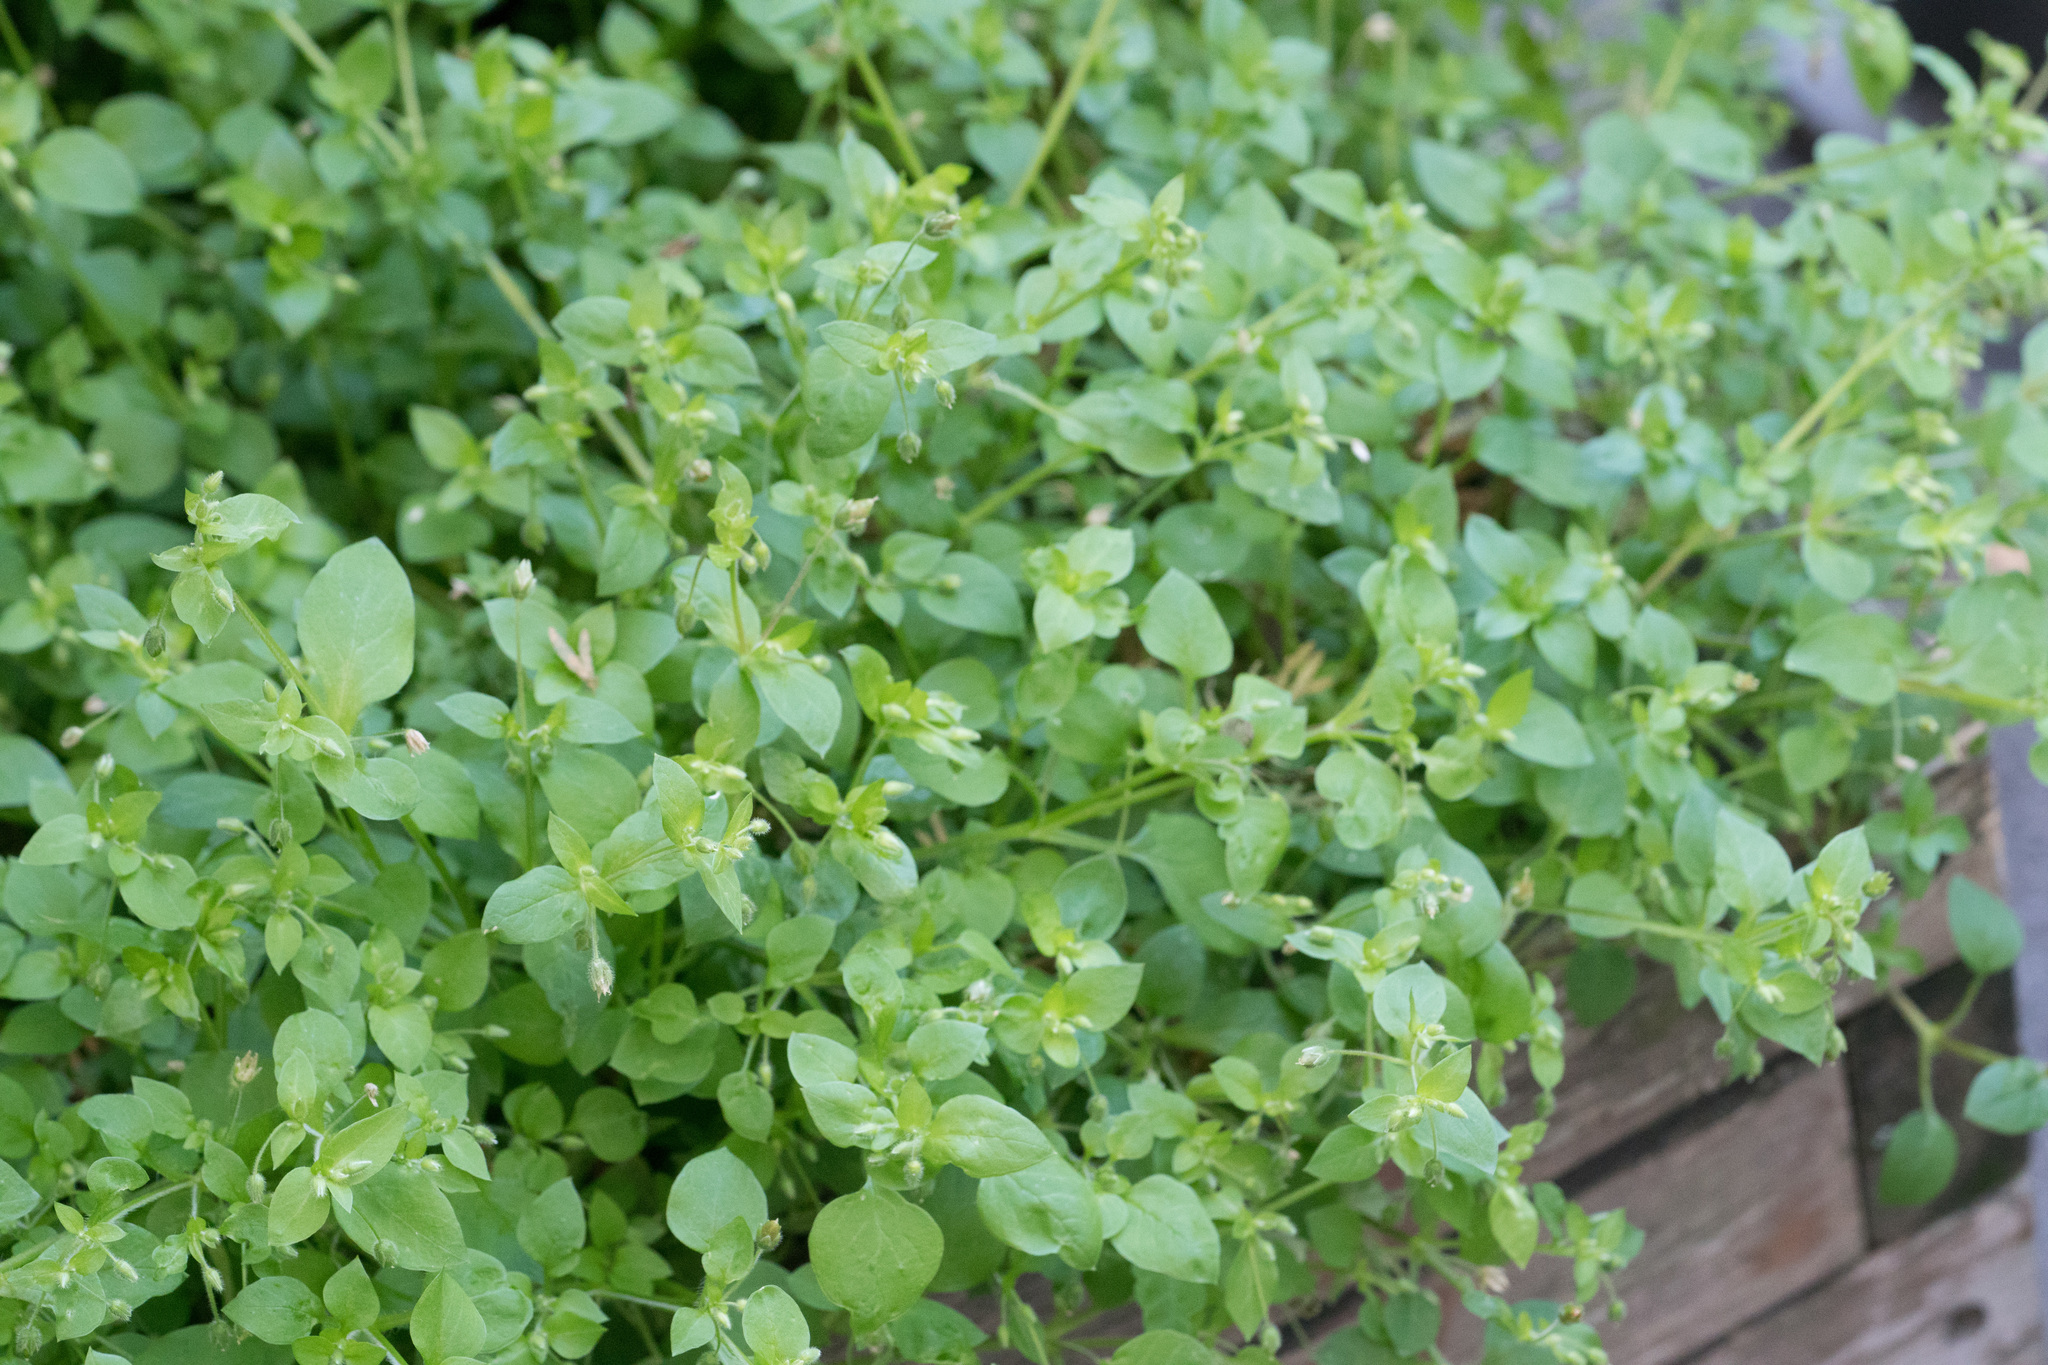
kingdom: Plantae
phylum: Tracheophyta
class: Magnoliopsida
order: Caryophyllales
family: Caryophyllaceae
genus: Stellaria
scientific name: Stellaria media
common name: Common chickweed
